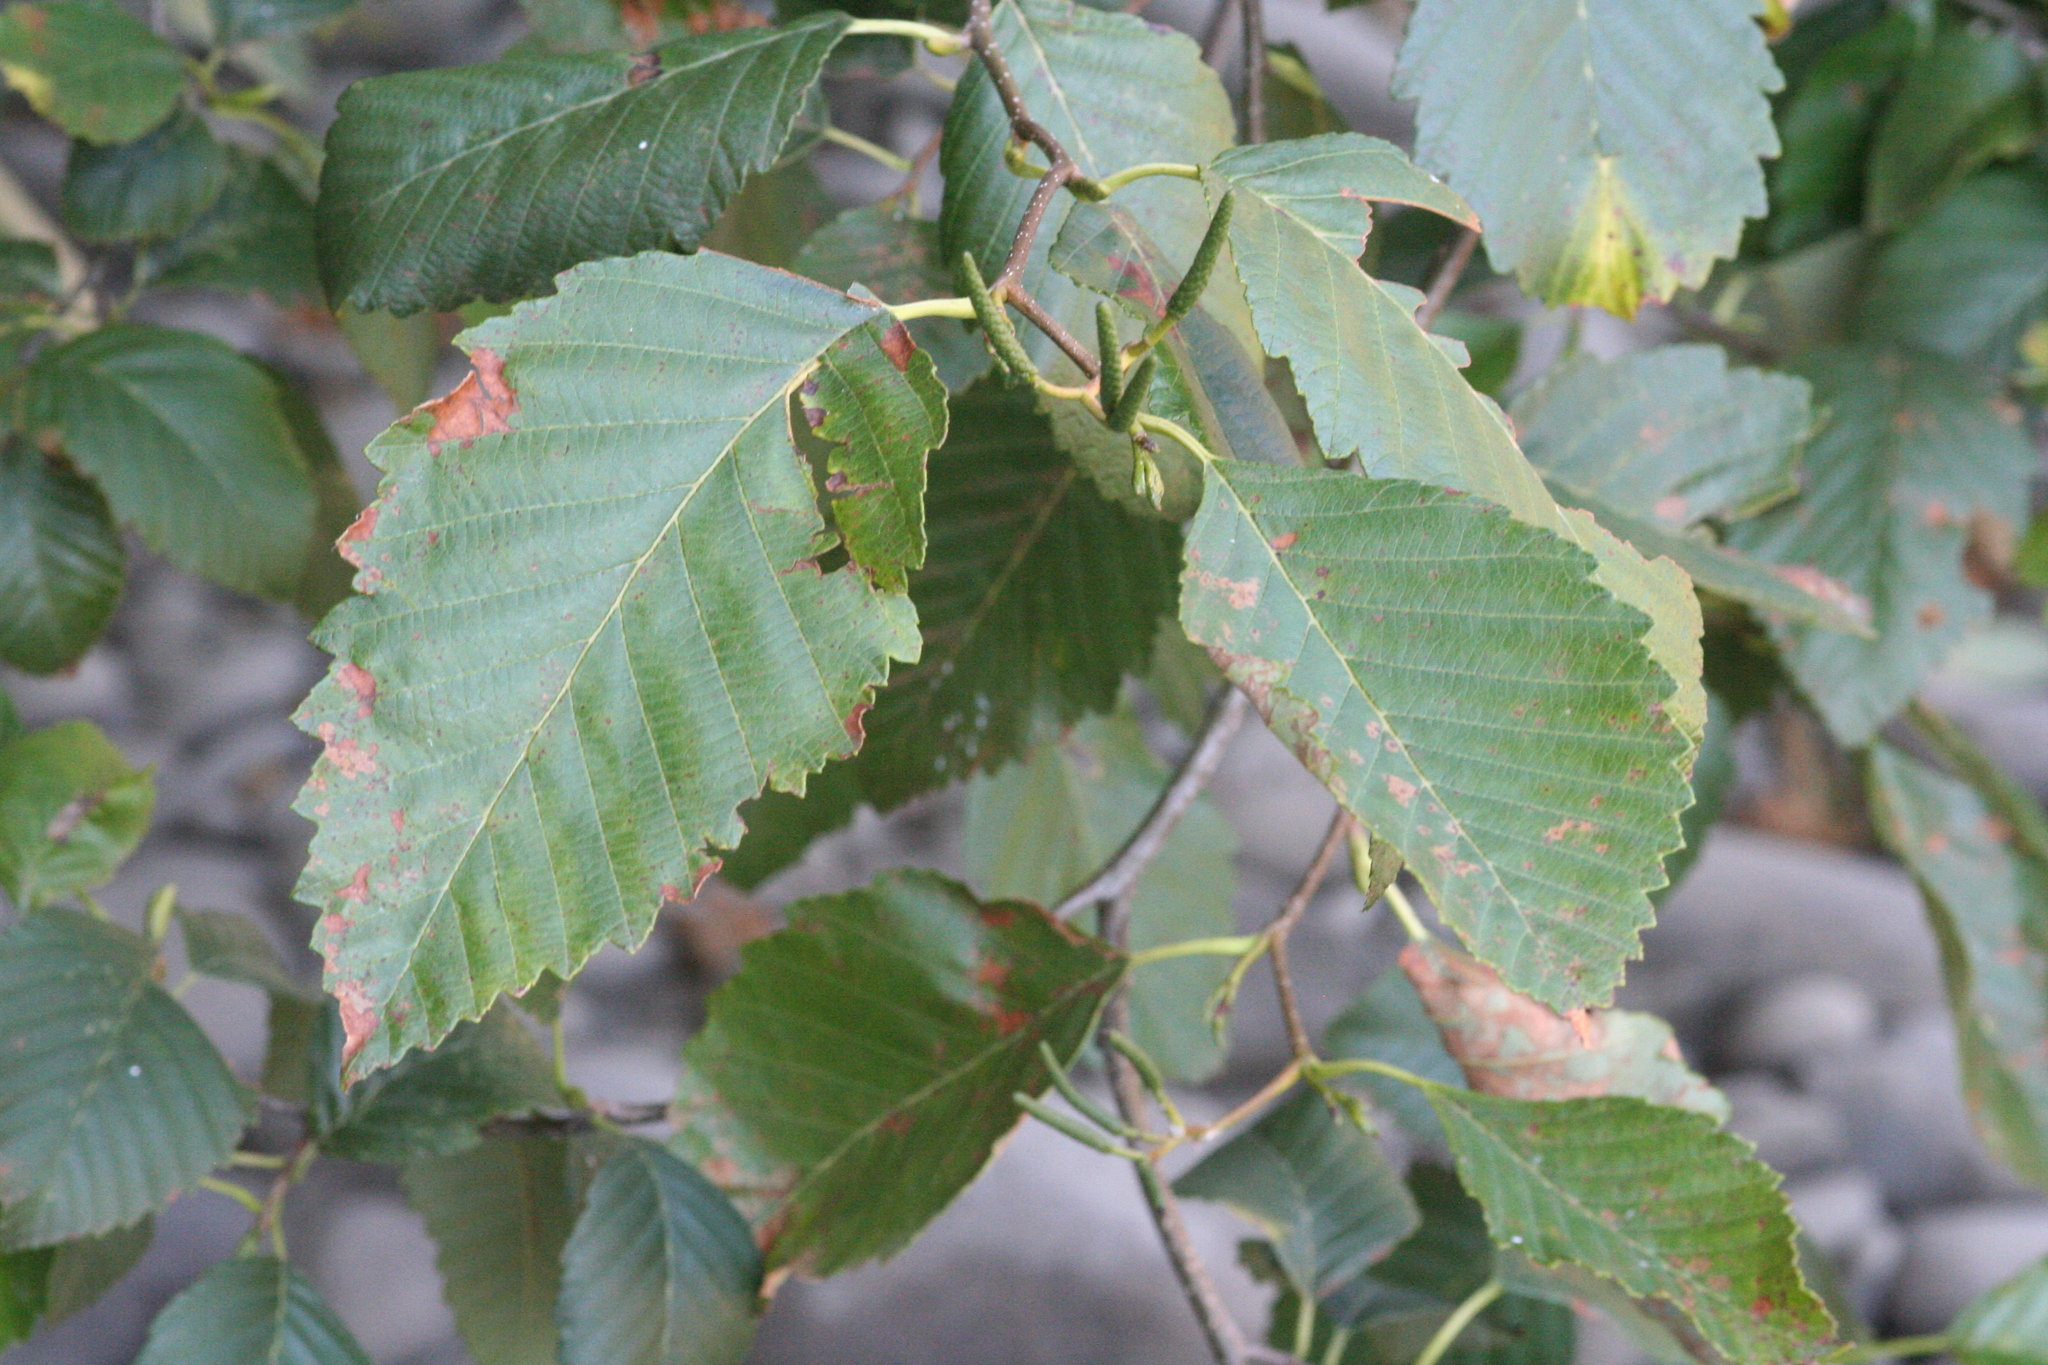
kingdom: Plantae
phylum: Tracheophyta
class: Magnoliopsida
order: Fagales
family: Betulaceae
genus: Alnus
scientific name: Alnus rubra
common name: Red alder
